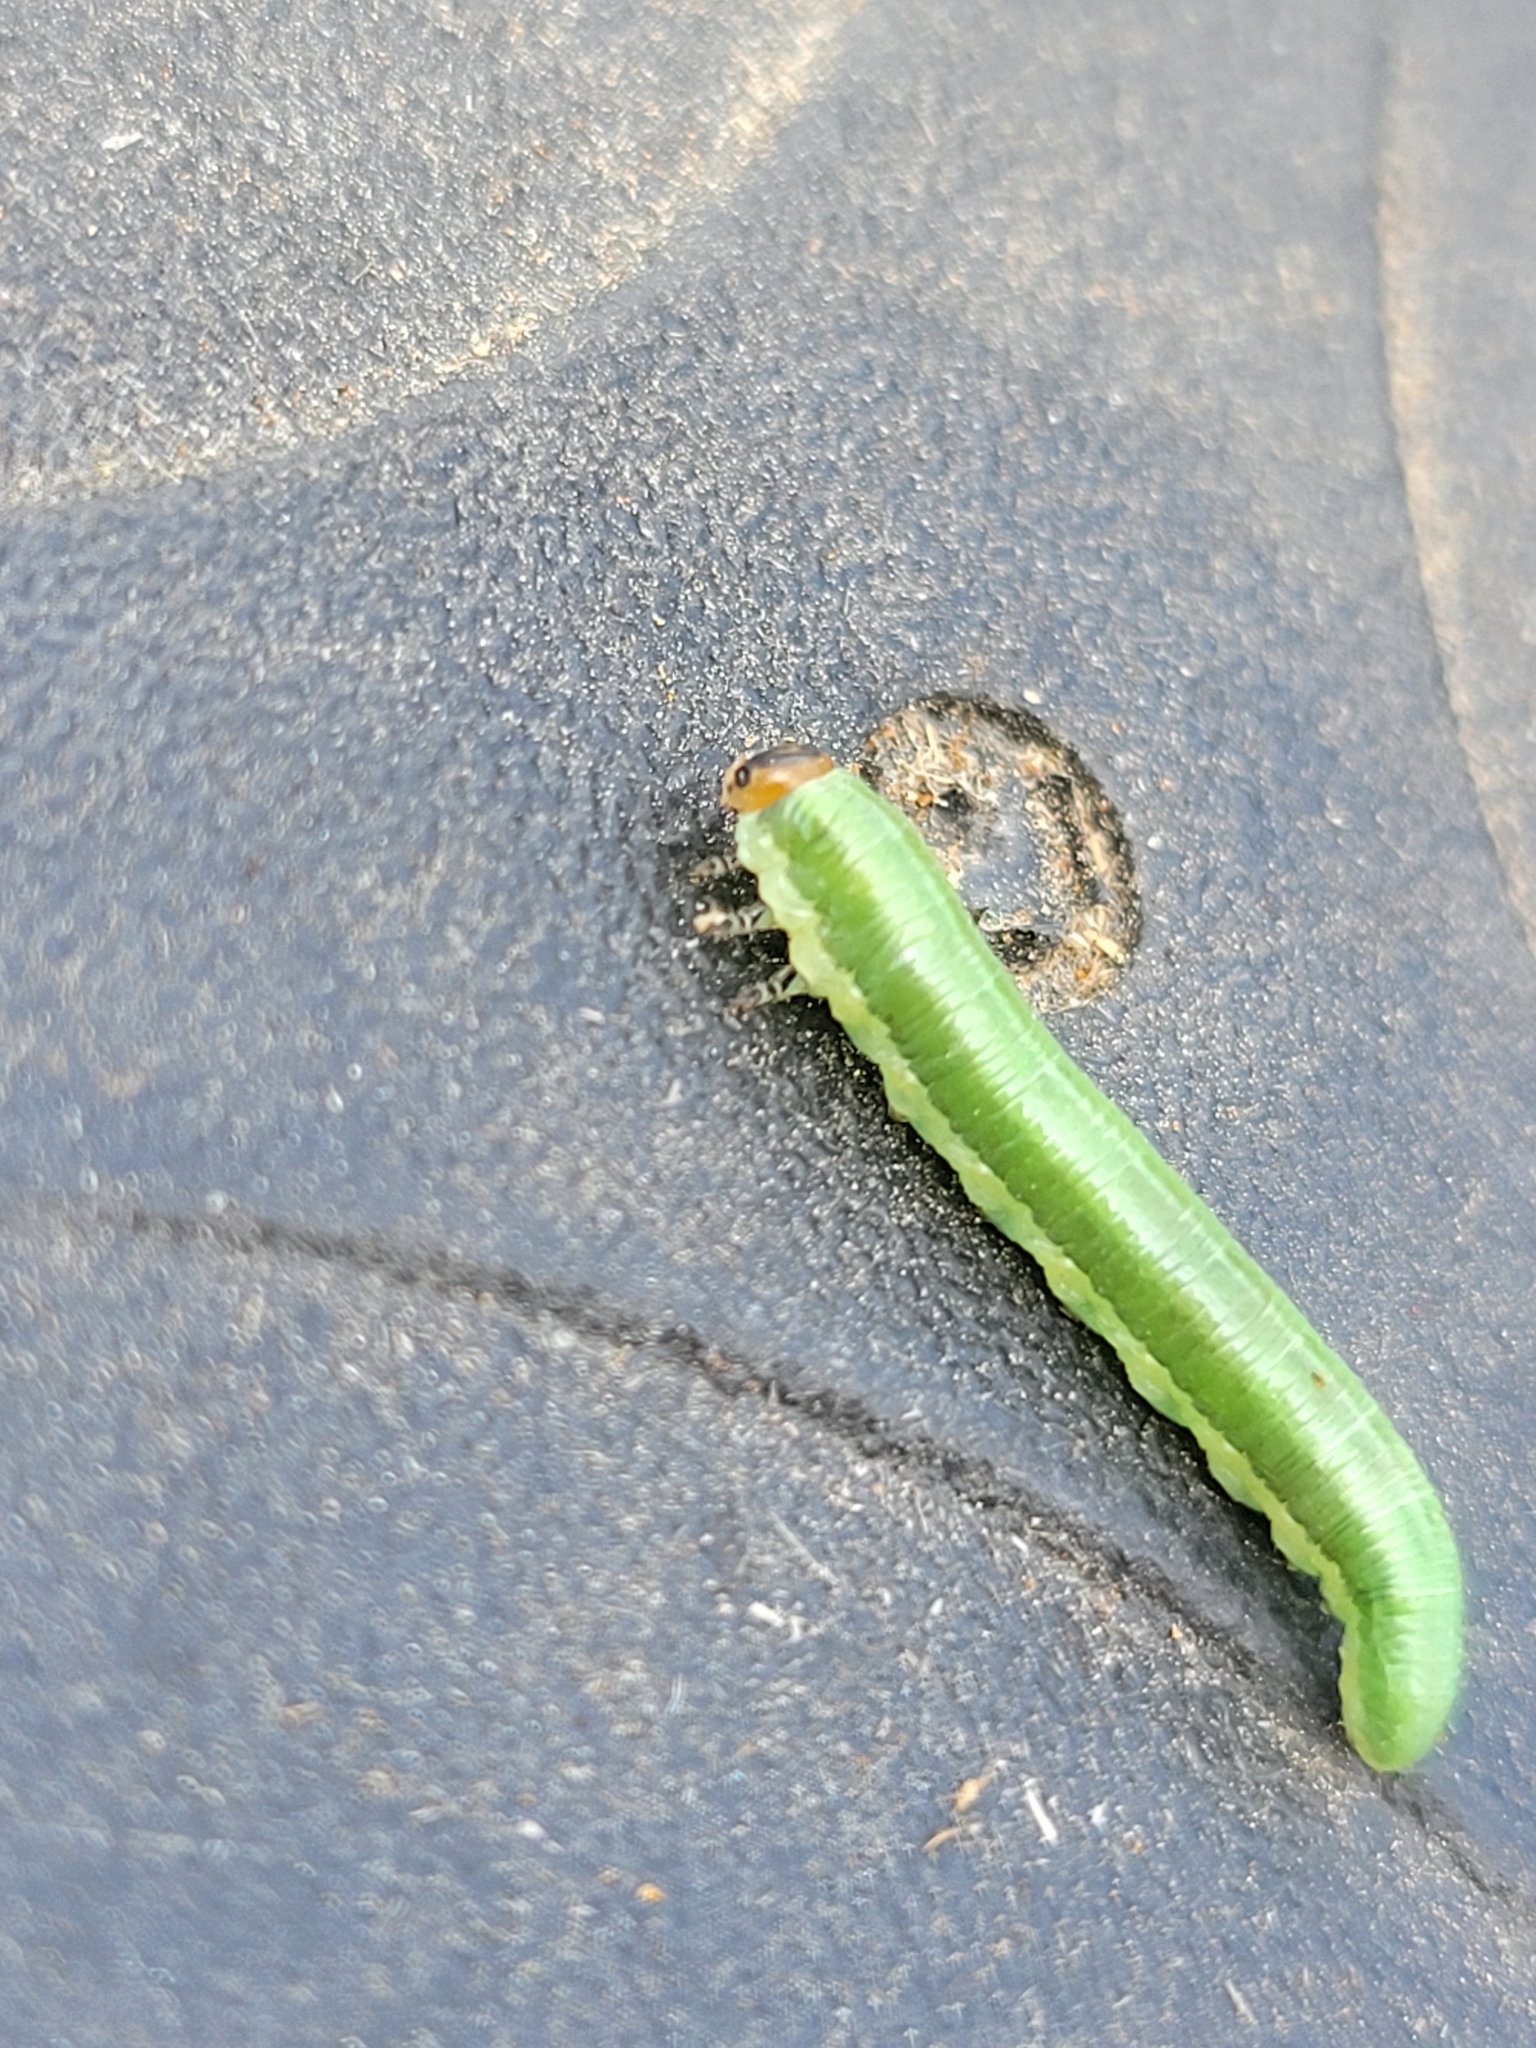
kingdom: Animalia
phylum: Arthropoda
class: Insecta
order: Hymenoptera
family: Diprionidae
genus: Gilpinia
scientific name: Gilpinia frutetorum
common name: Conifer sawfly
